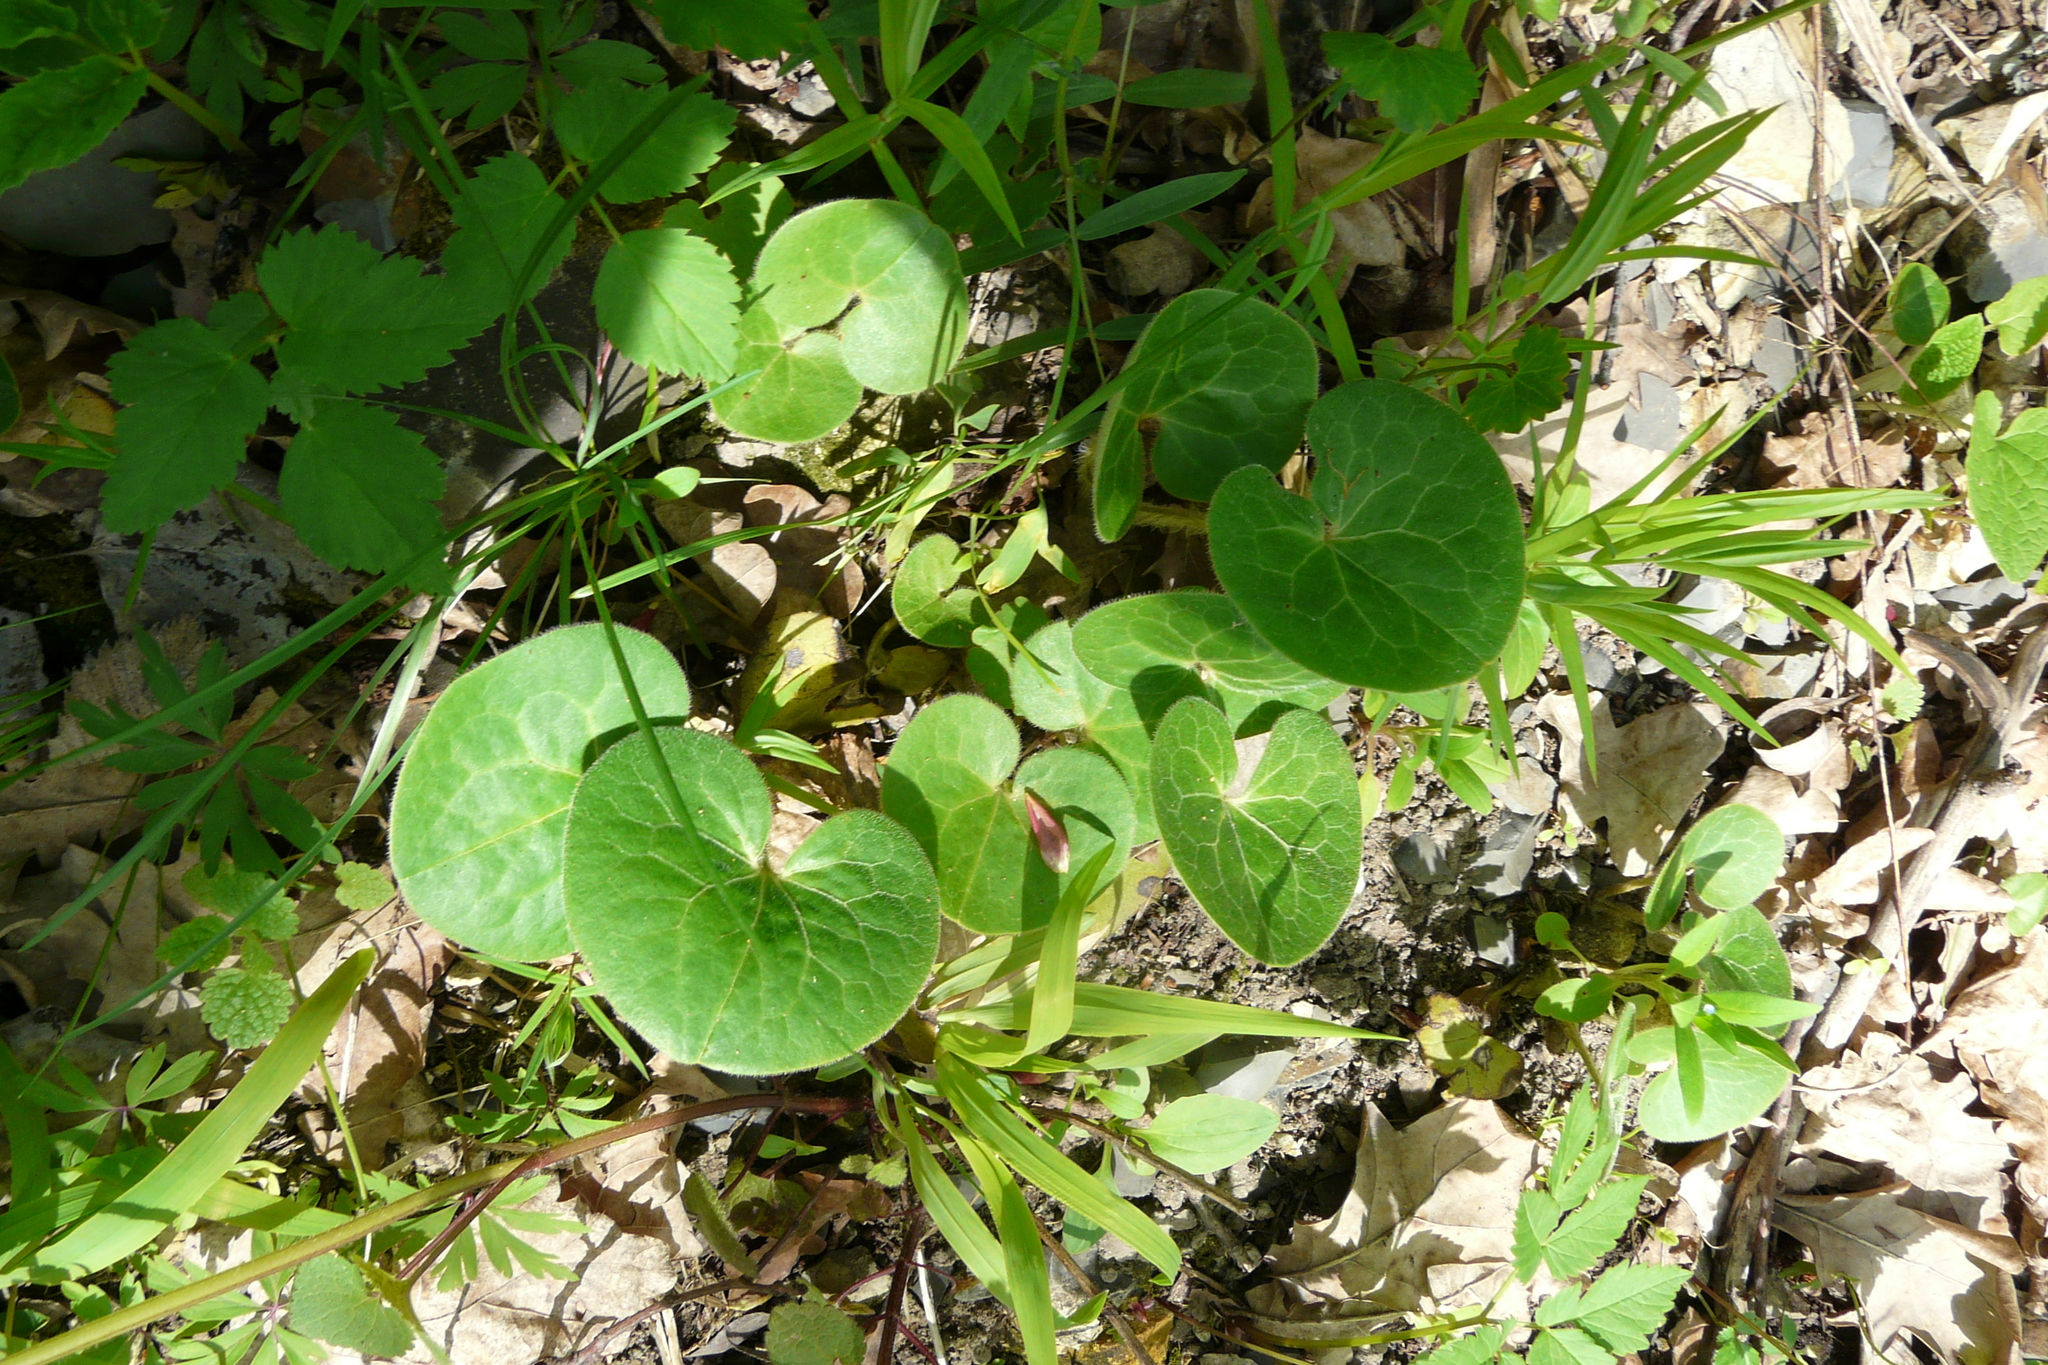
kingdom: Plantae
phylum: Tracheophyta
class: Magnoliopsida
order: Piperales
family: Aristolochiaceae
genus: Asarum
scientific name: Asarum europaeum
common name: Asarabacca
